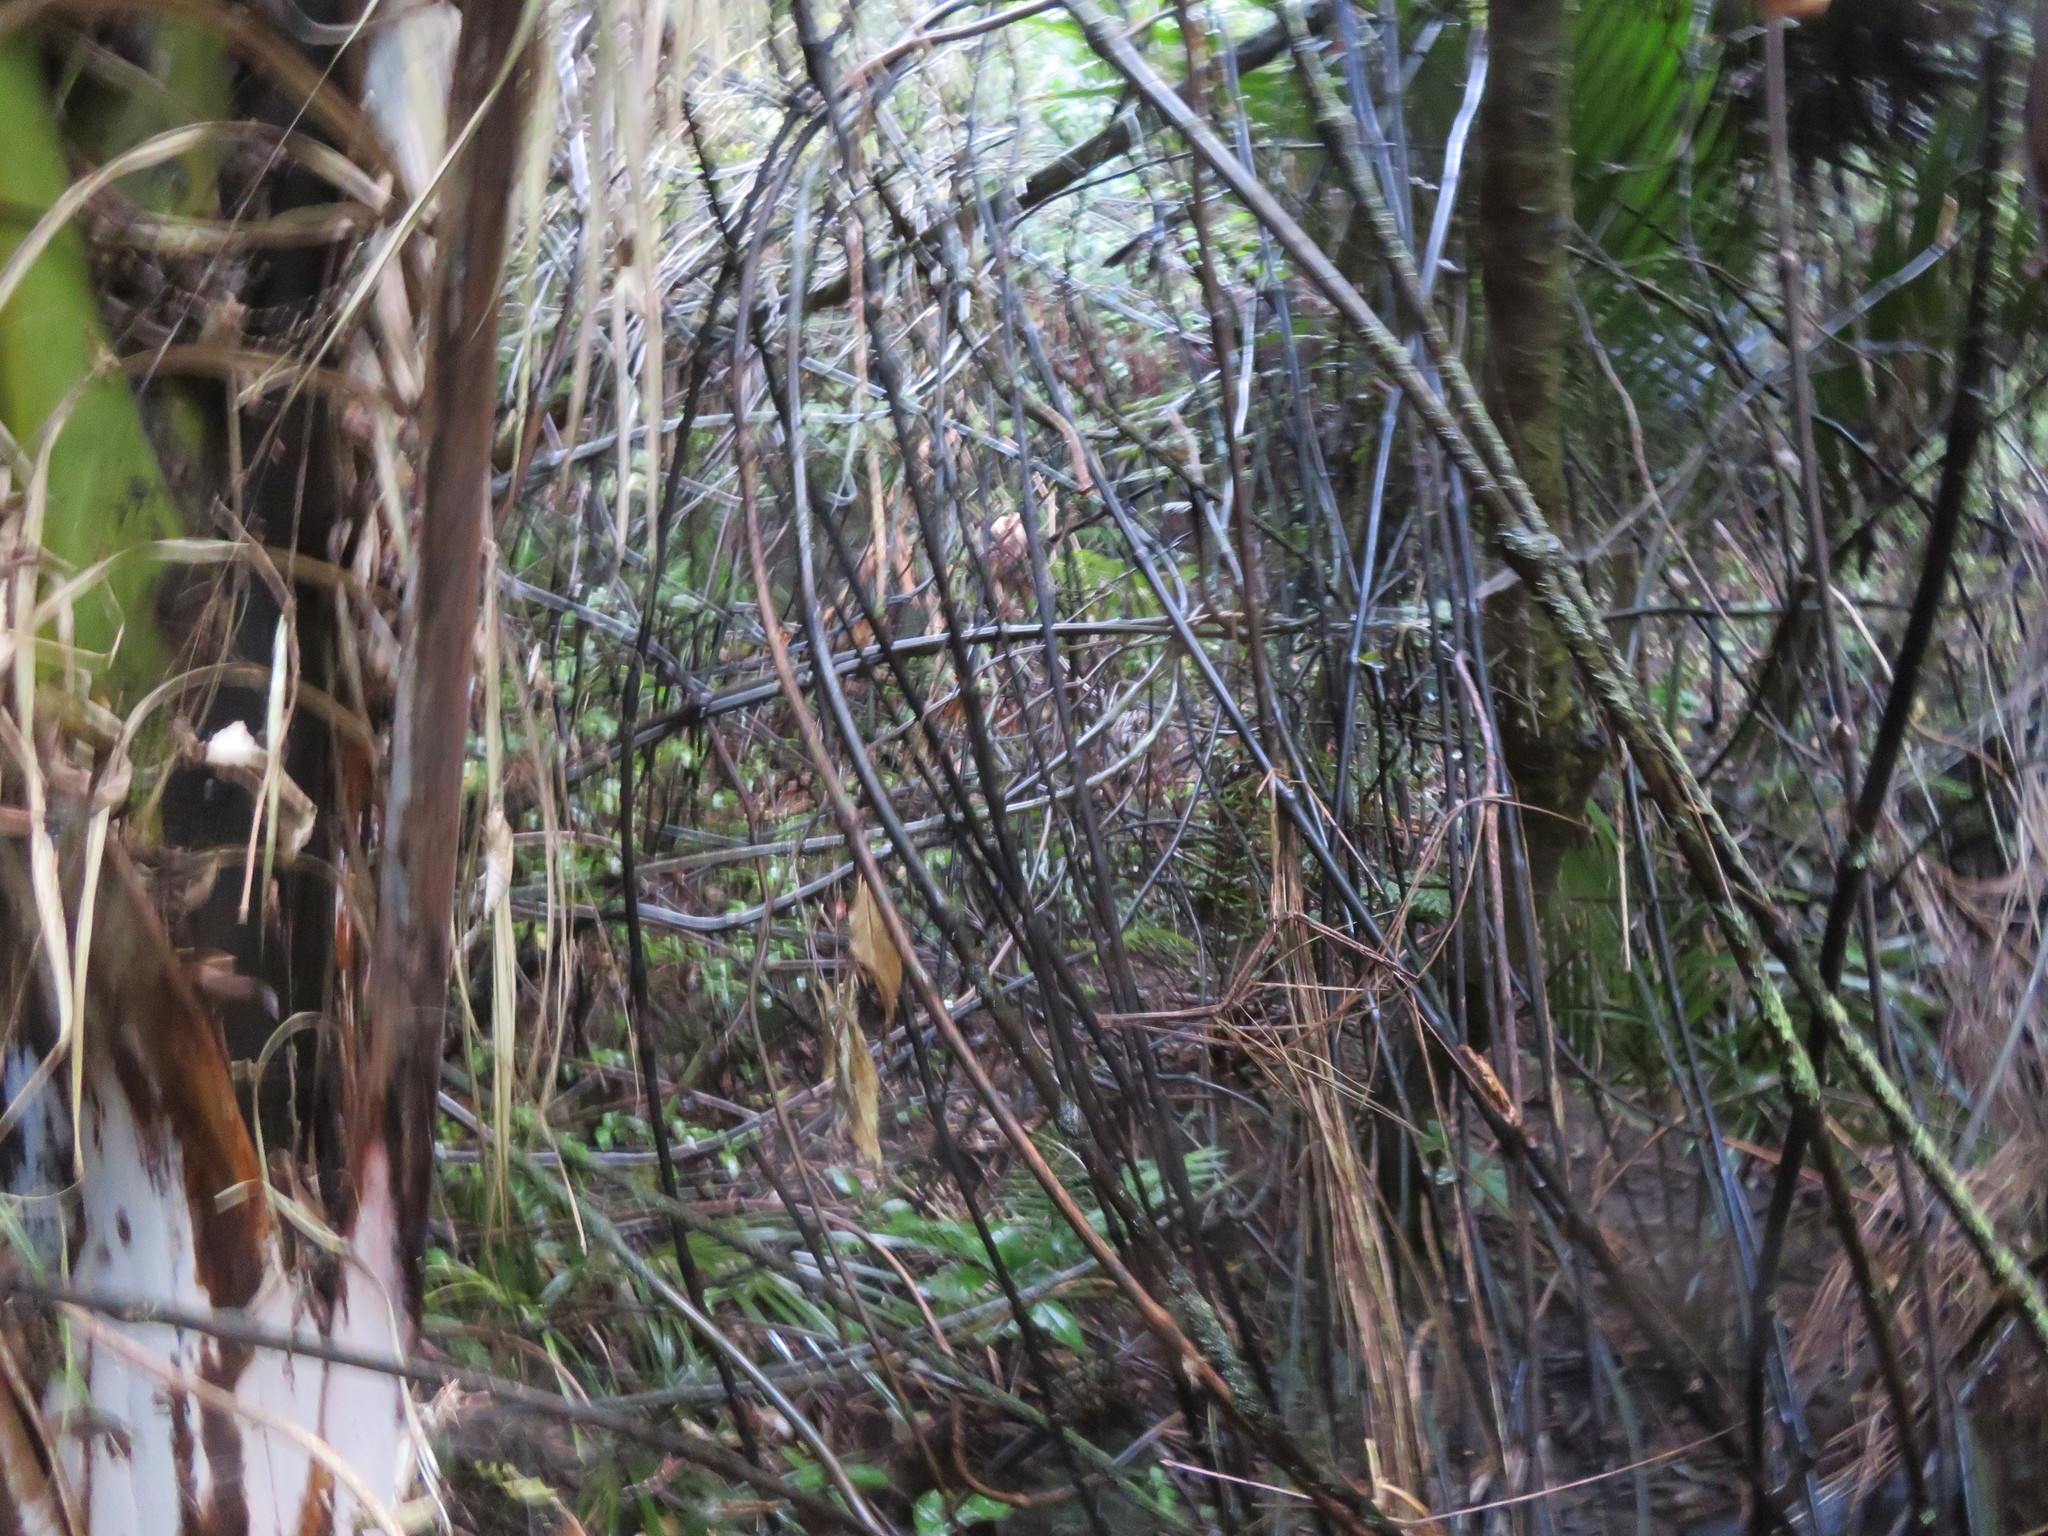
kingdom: Plantae
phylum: Tracheophyta
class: Liliopsida
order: Liliales
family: Ripogonaceae
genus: Ripogonum
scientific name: Ripogonum scandens
